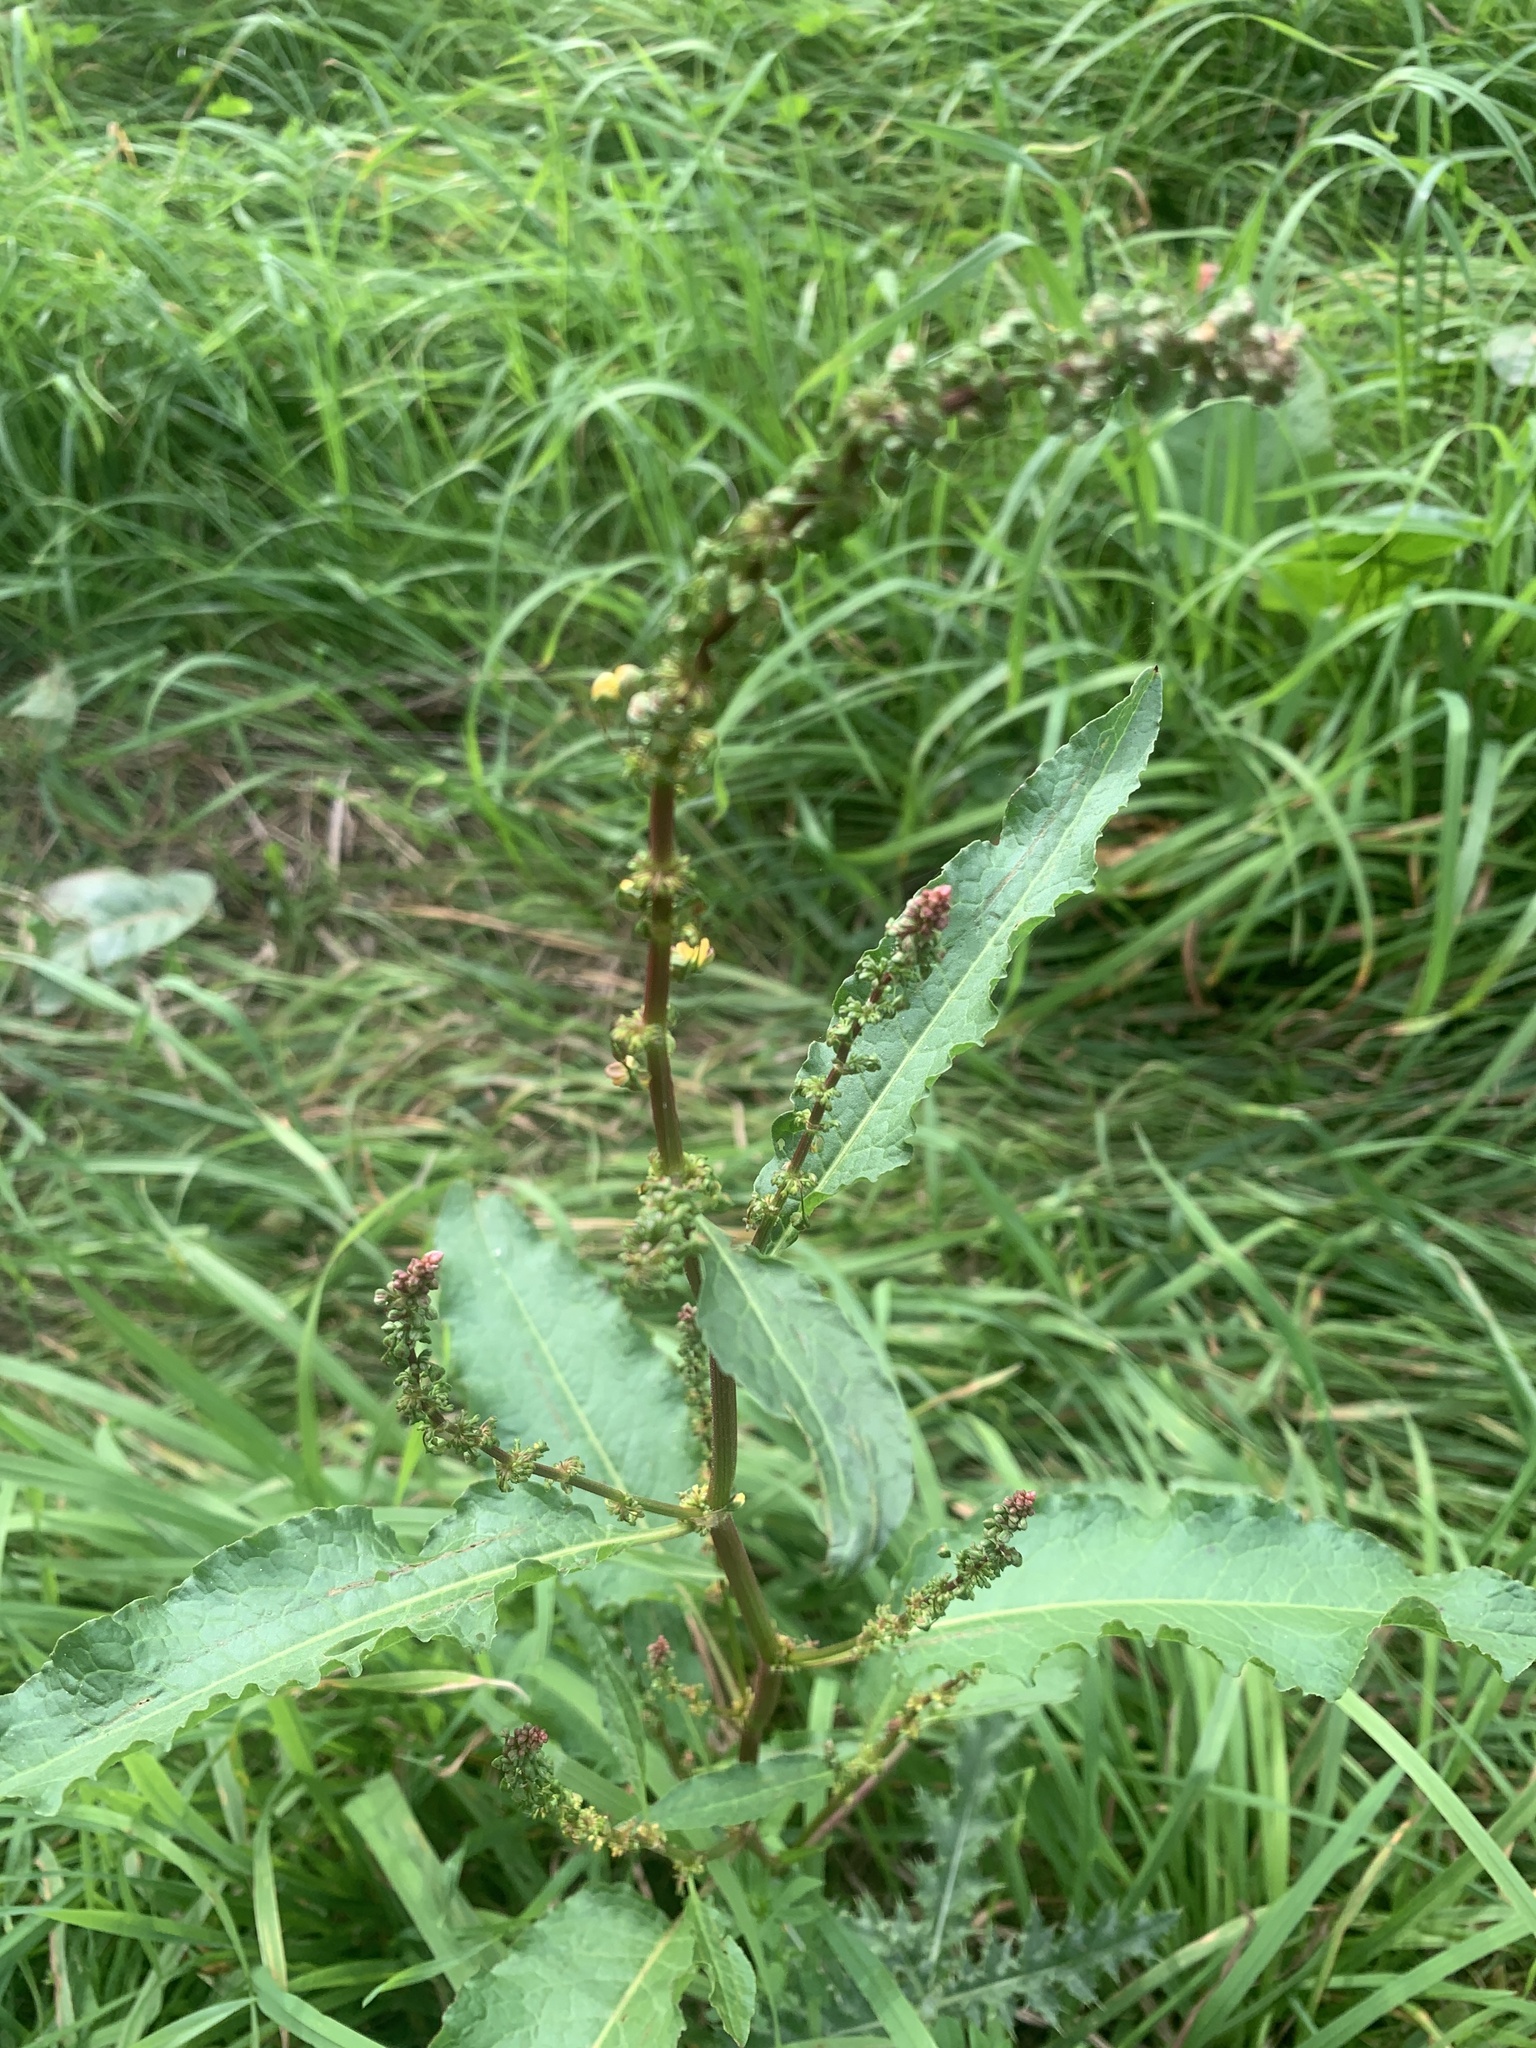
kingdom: Plantae
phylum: Tracheophyta
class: Magnoliopsida
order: Caryophyllales
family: Polygonaceae
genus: Rumex
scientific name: Rumex obtusifolius
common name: Bitter dock
